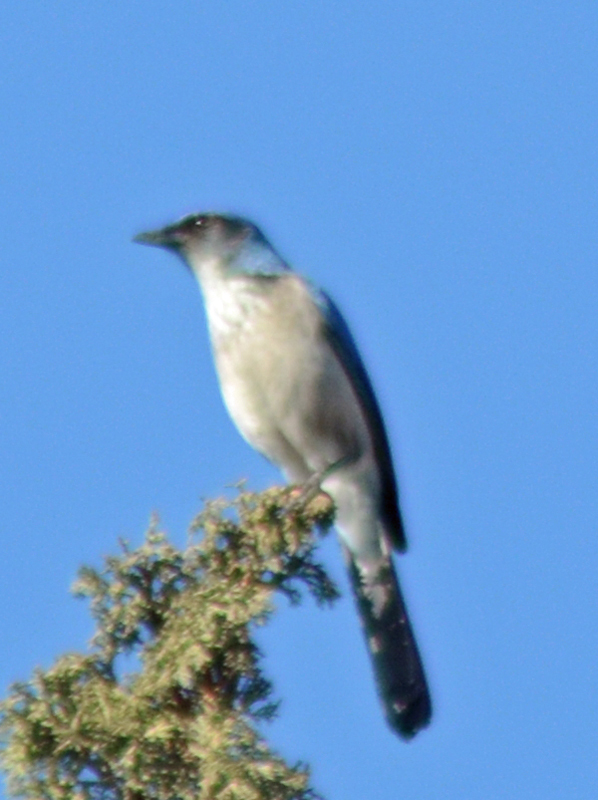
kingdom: Animalia
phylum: Chordata
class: Aves
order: Passeriformes
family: Corvidae
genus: Aphelocoma
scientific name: Aphelocoma woodhouseii
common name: Woodhouse's scrub-jay
